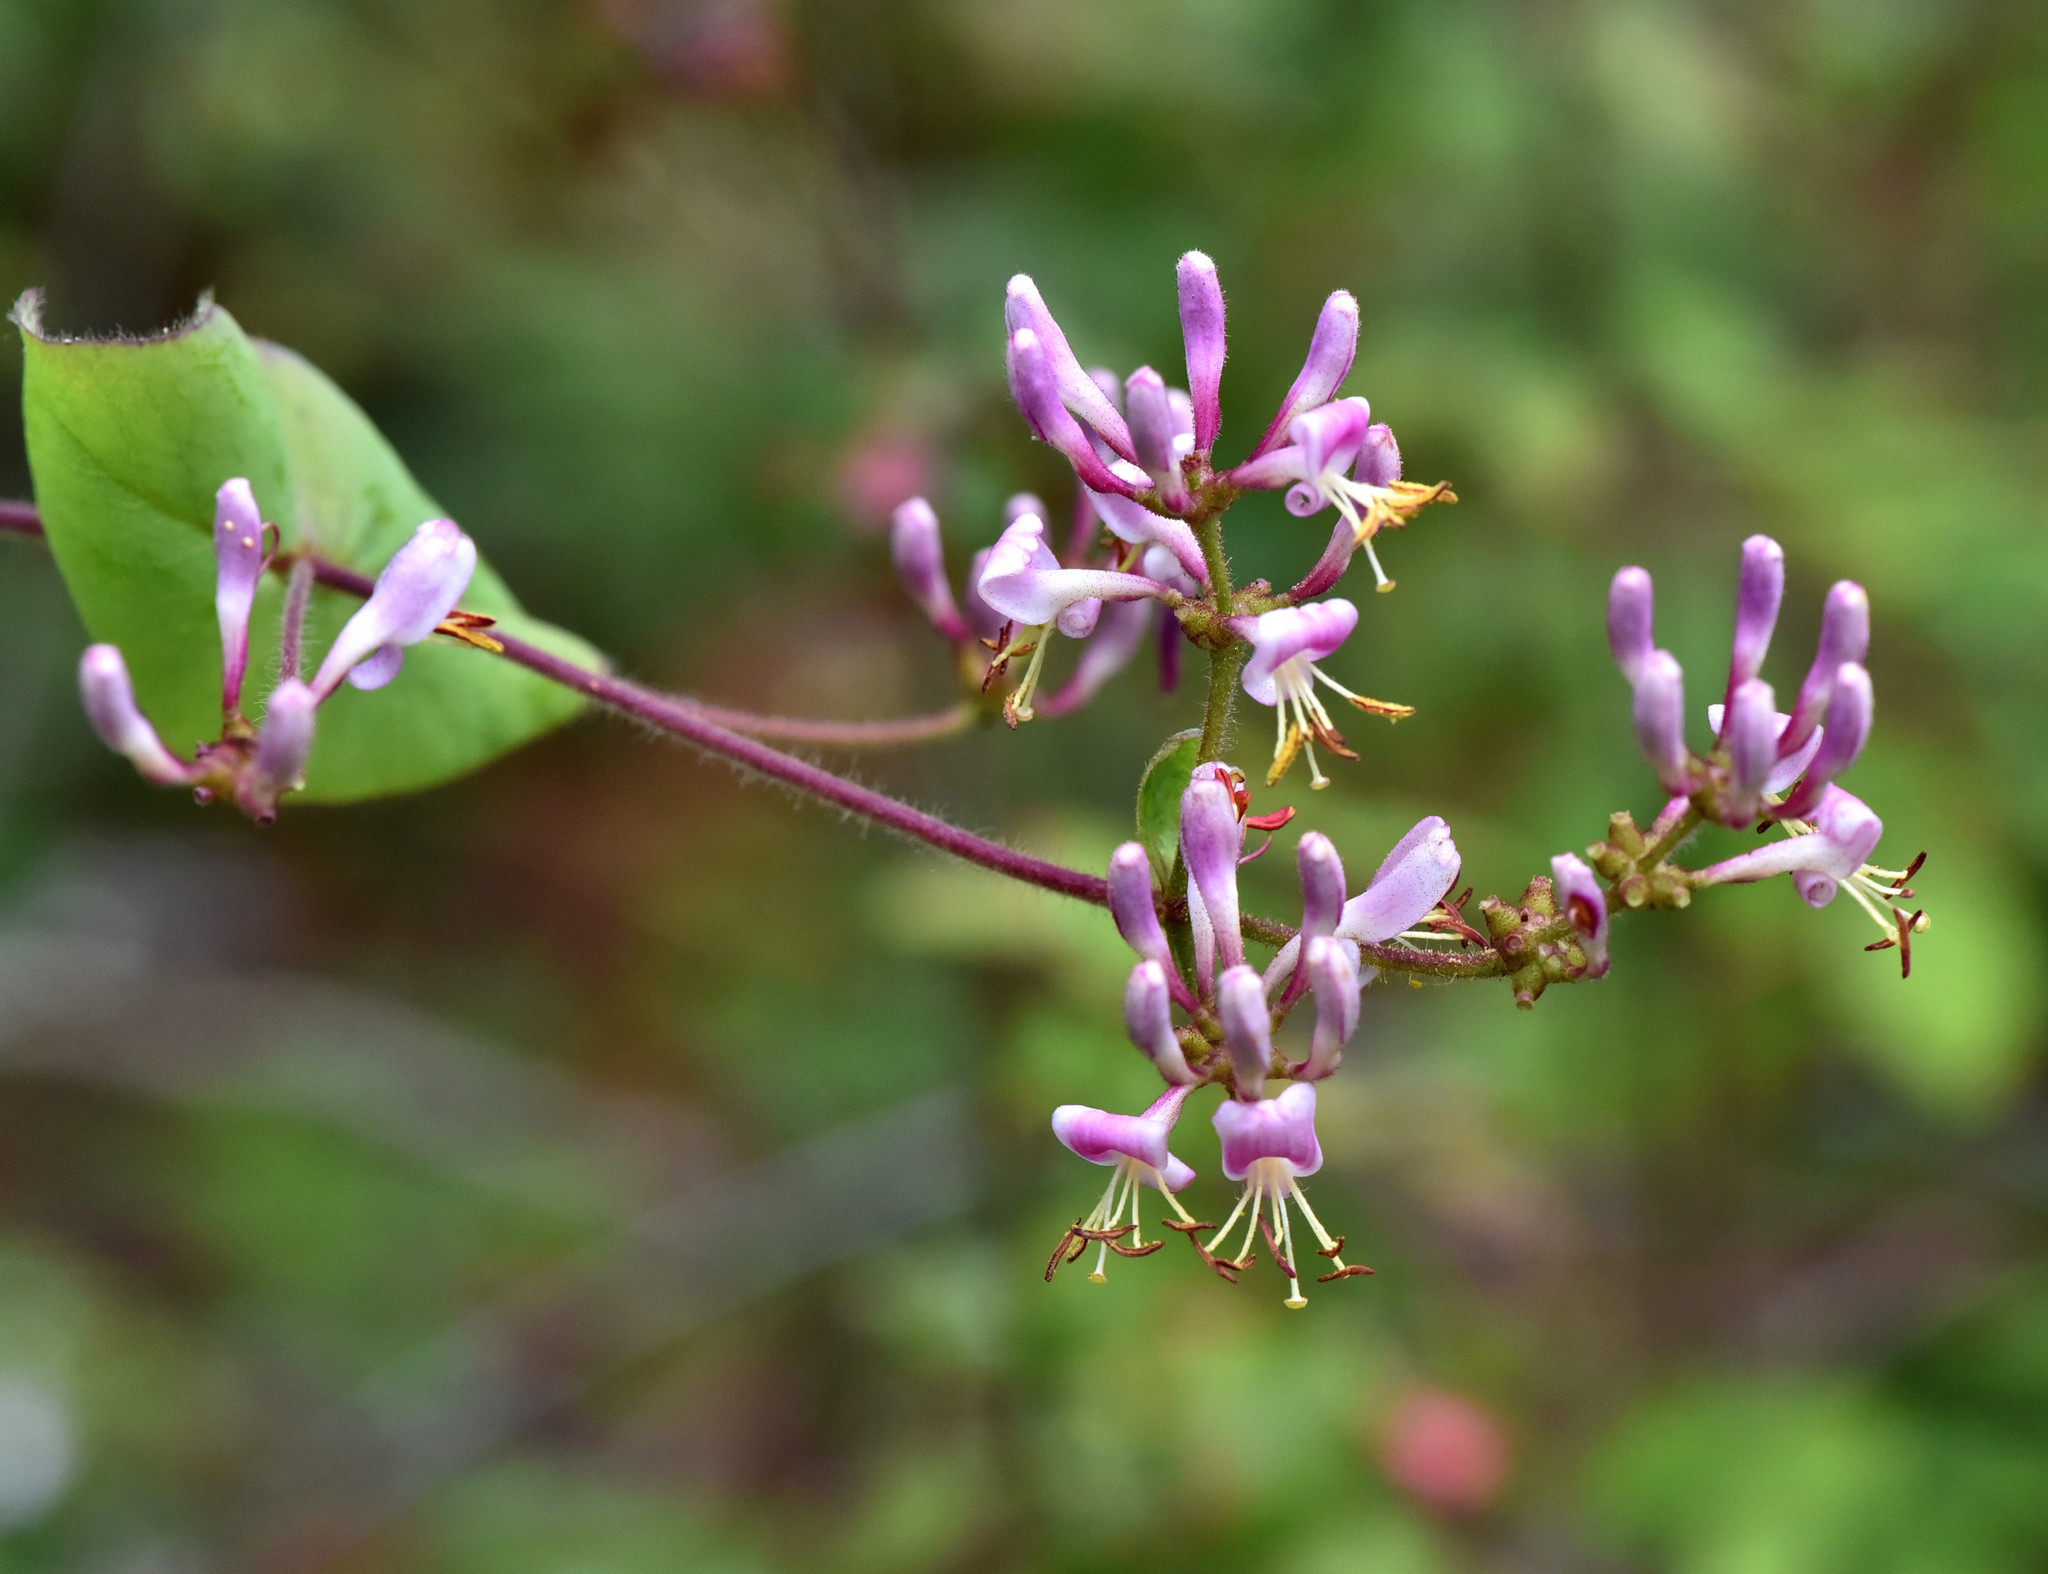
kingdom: Plantae
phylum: Tracheophyta
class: Magnoliopsida
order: Dipsacales
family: Caprifoliaceae
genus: Lonicera
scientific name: Lonicera hispidula
